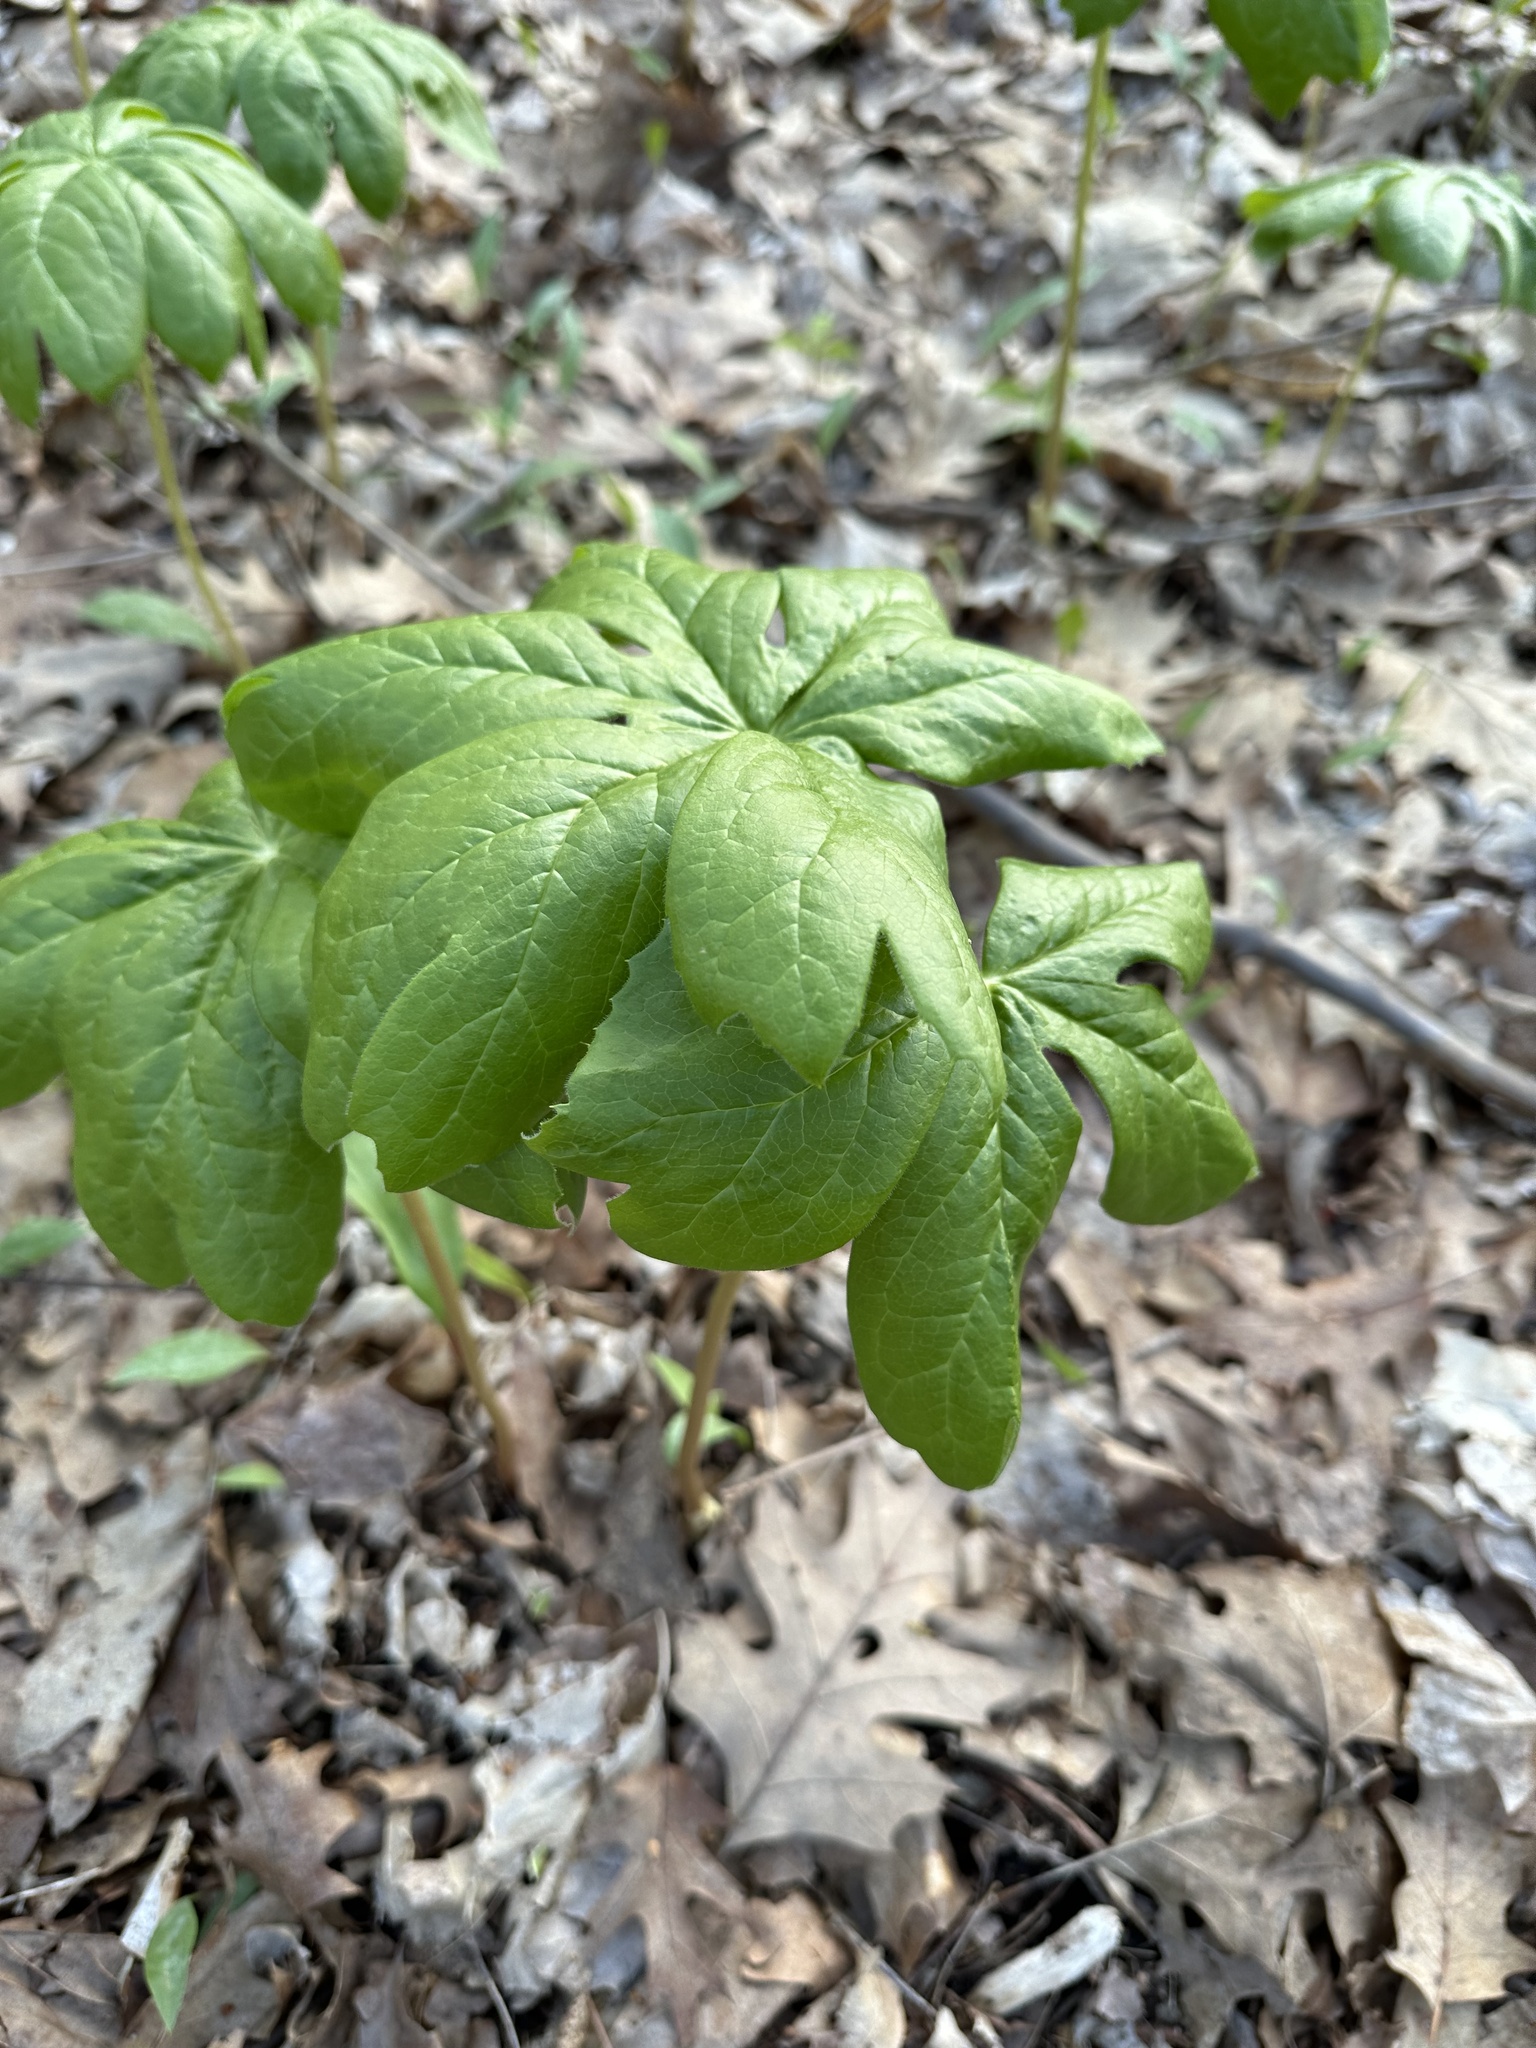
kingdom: Plantae
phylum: Tracheophyta
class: Magnoliopsida
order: Ranunculales
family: Berberidaceae
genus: Podophyllum
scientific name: Podophyllum peltatum
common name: Wild mandrake
